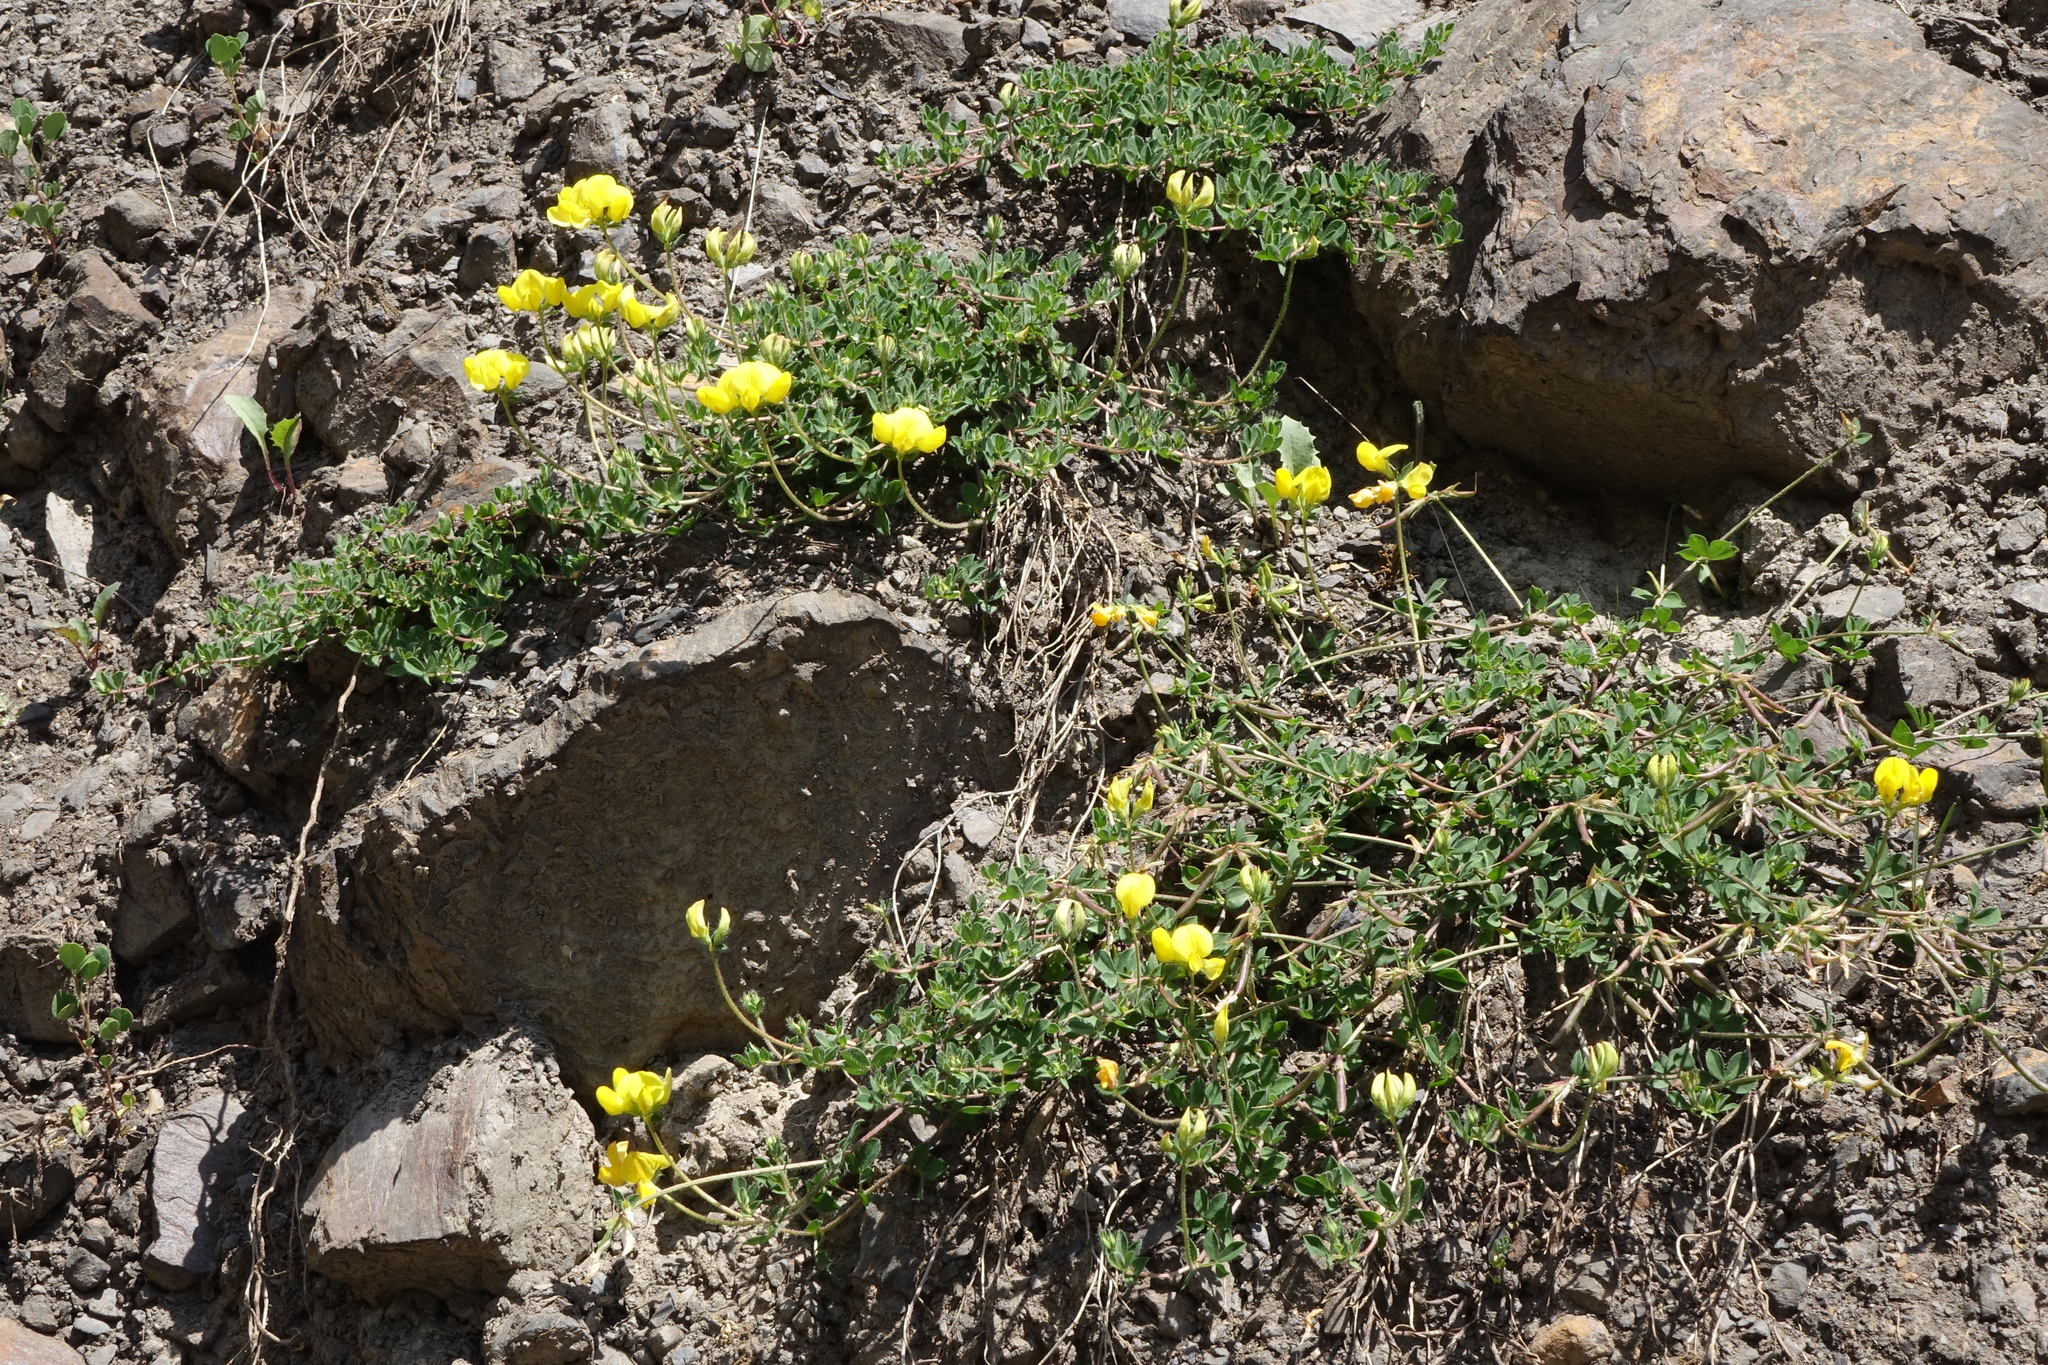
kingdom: Plantae
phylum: Tracheophyta
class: Magnoliopsida
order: Fabales
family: Fabaceae
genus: Lotus
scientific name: Lotus corniculatus
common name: Common bird's-foot-trefoil
